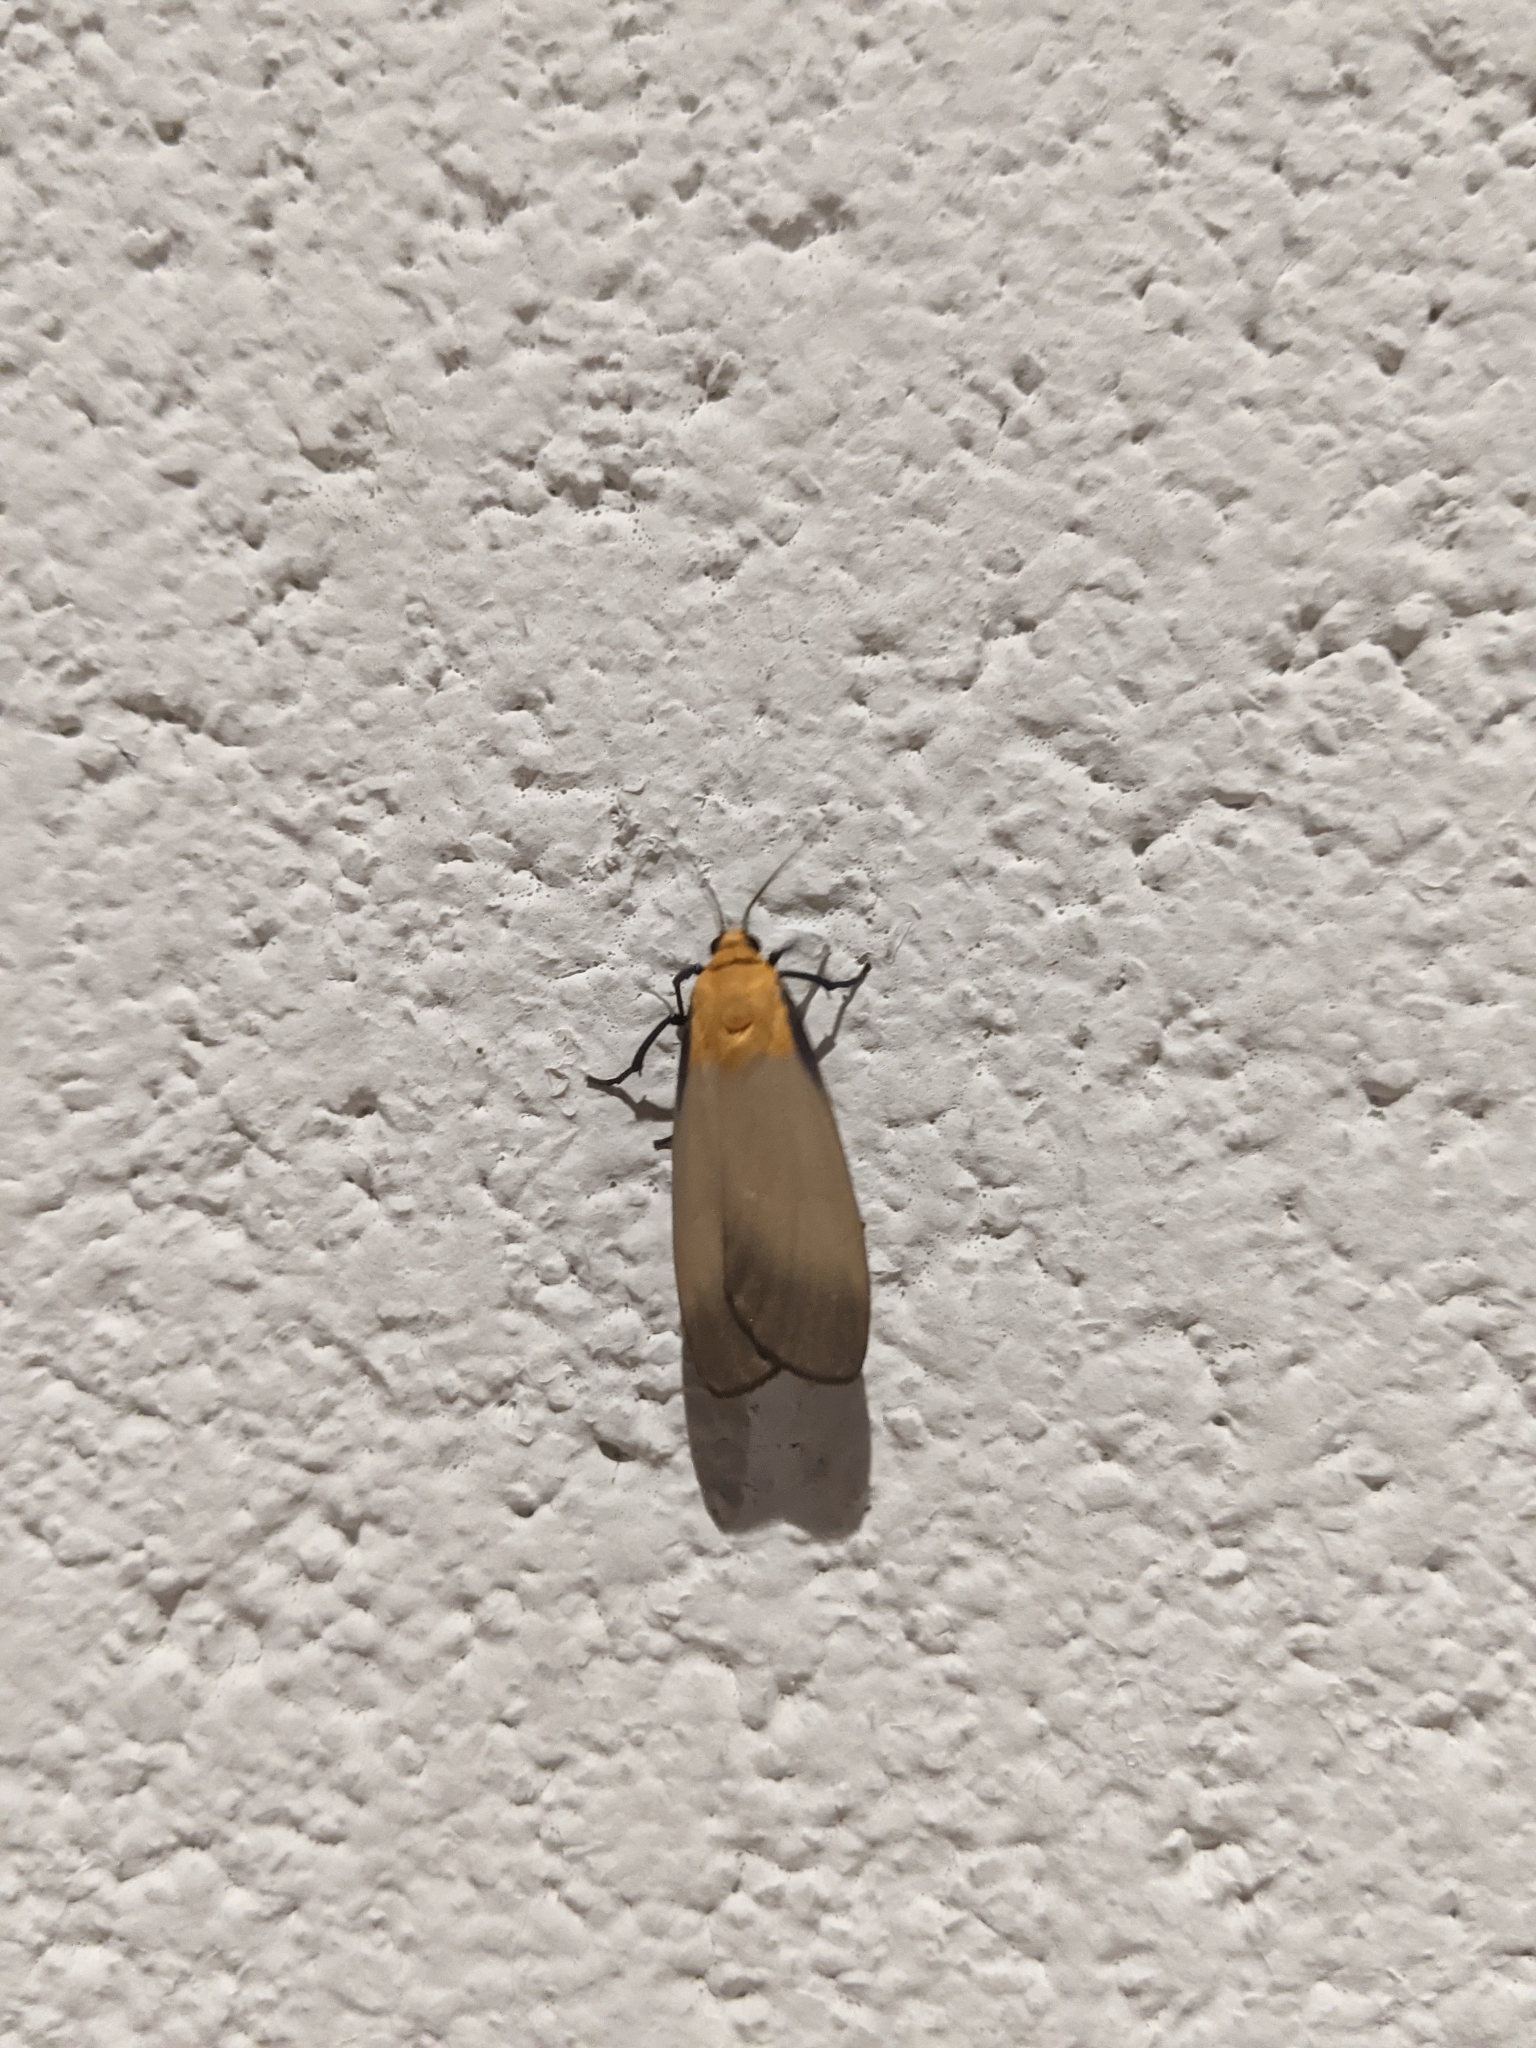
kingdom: Animalia
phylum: Arthropoda
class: Insecta
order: Lepidoptera
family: Erebidae
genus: Lithosia
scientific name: Lithosia quadra
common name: Four-spotted footman
